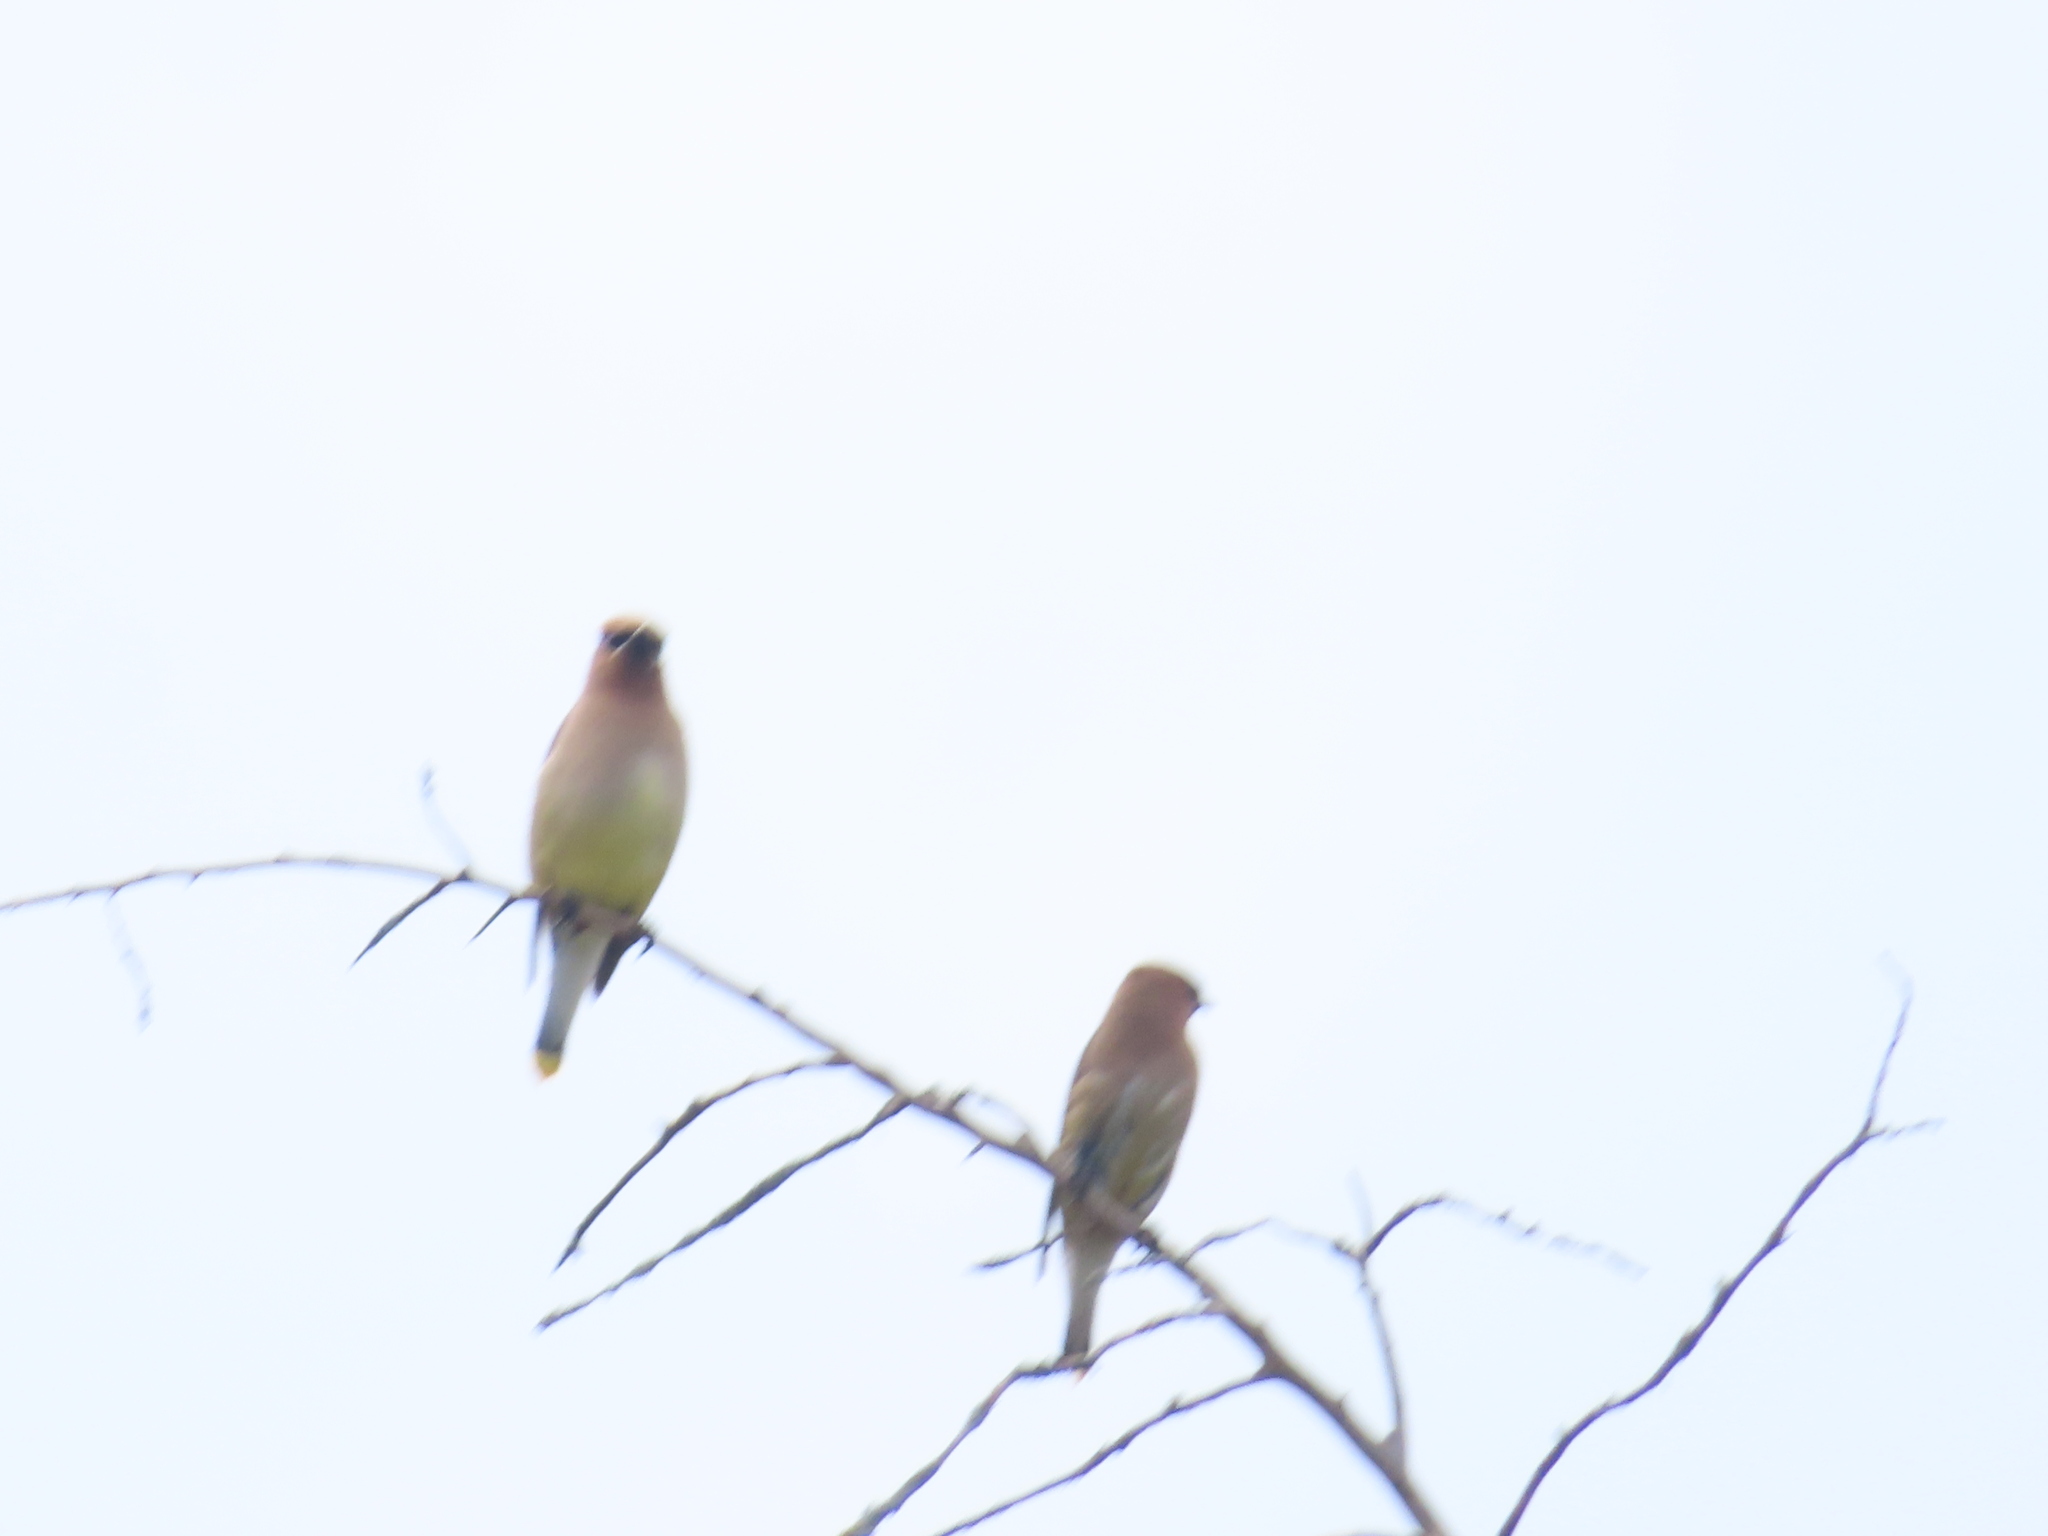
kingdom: Animalia
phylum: Chordata
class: Aves
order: Passeriformes
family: Bombycillidae
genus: Bombycilla
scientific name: Bombycilla cedrorum
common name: Cedar waxwing
